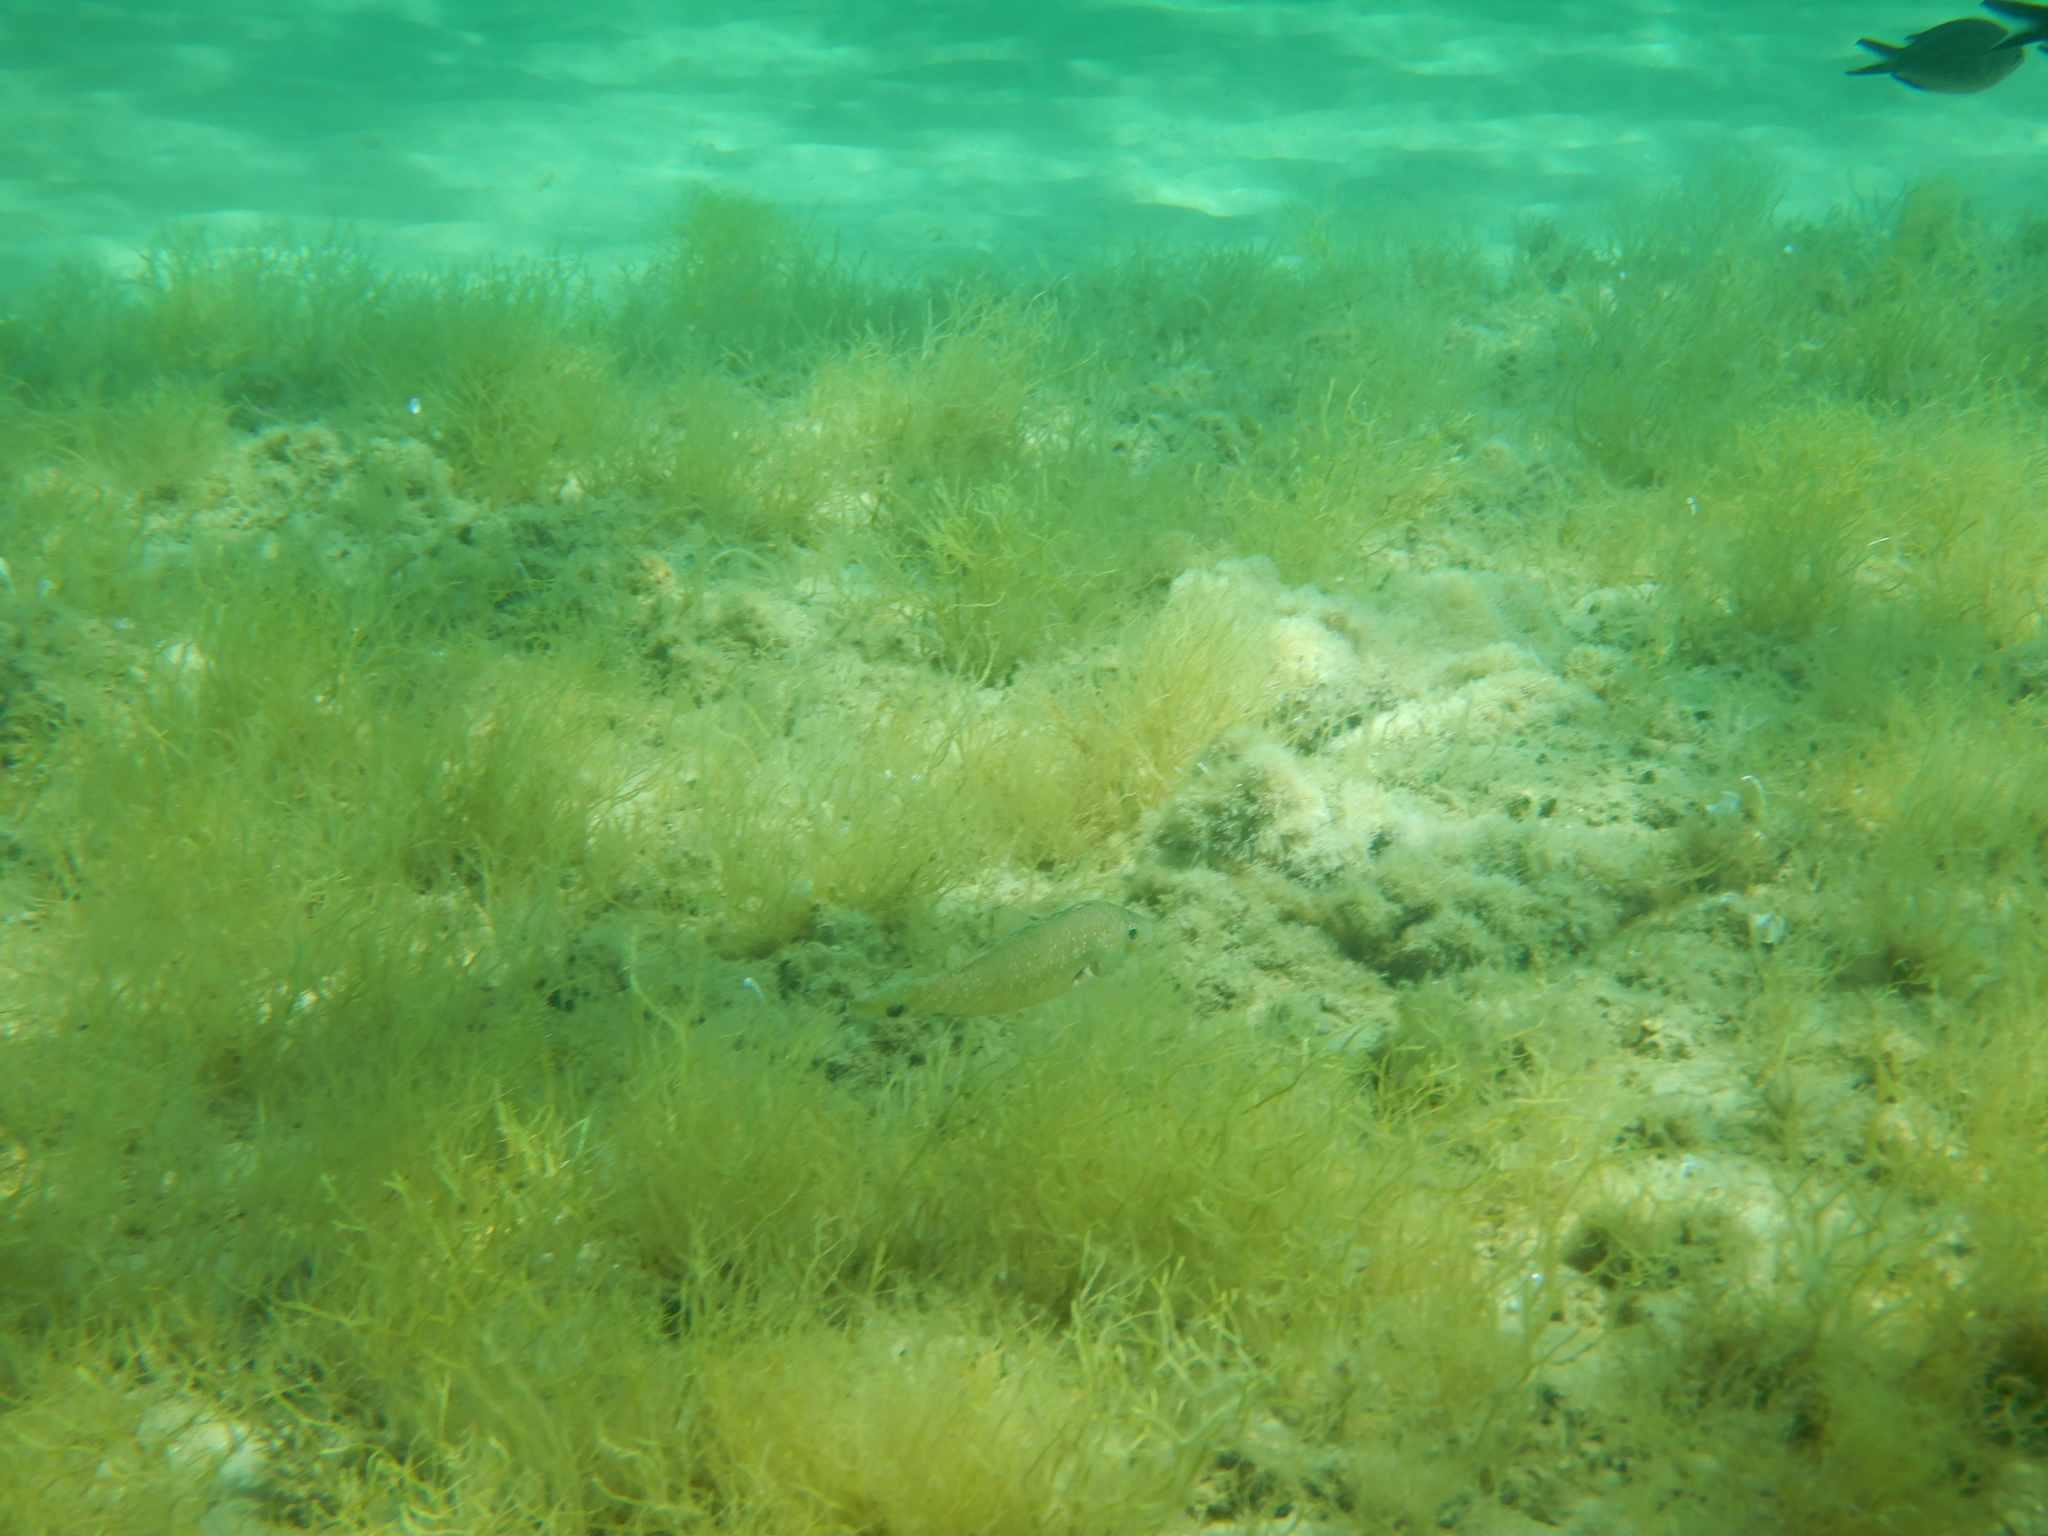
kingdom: Animalia
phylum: Chordata
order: Perciformes
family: Labridae
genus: Symphodus
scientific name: Symphodus cinereus
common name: Grey wrasse
